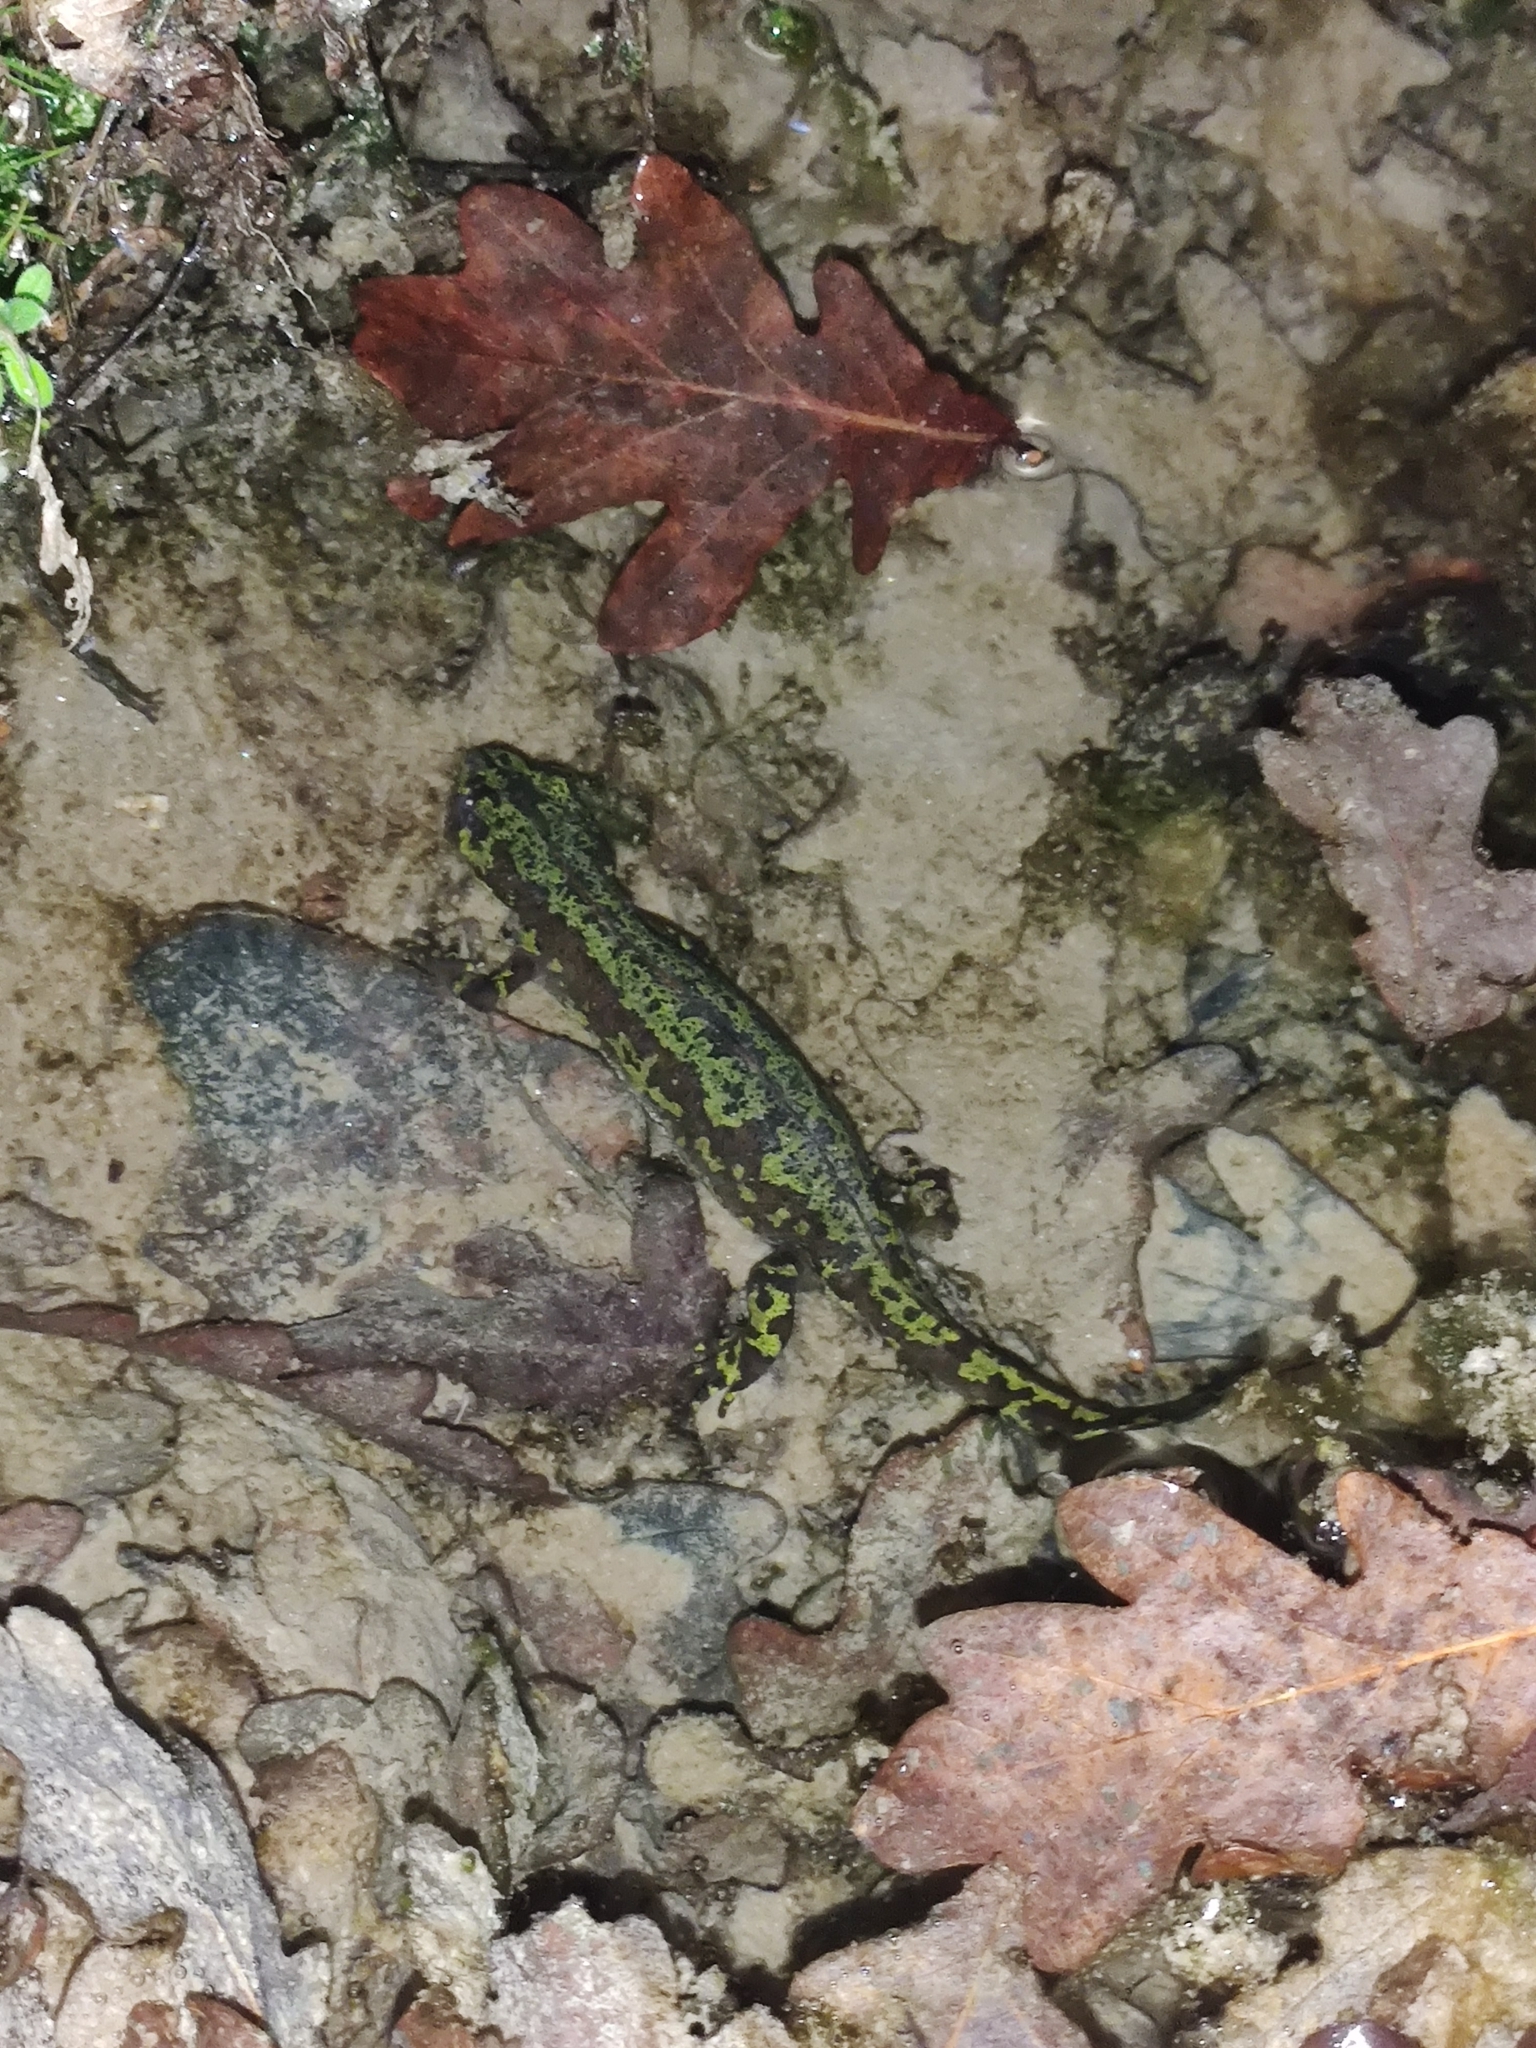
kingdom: Animalia
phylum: Chordata
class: Amphibia
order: Caudata
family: Salamandridae
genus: Triturus
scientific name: Triturus marmoratus
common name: Marbled newt
